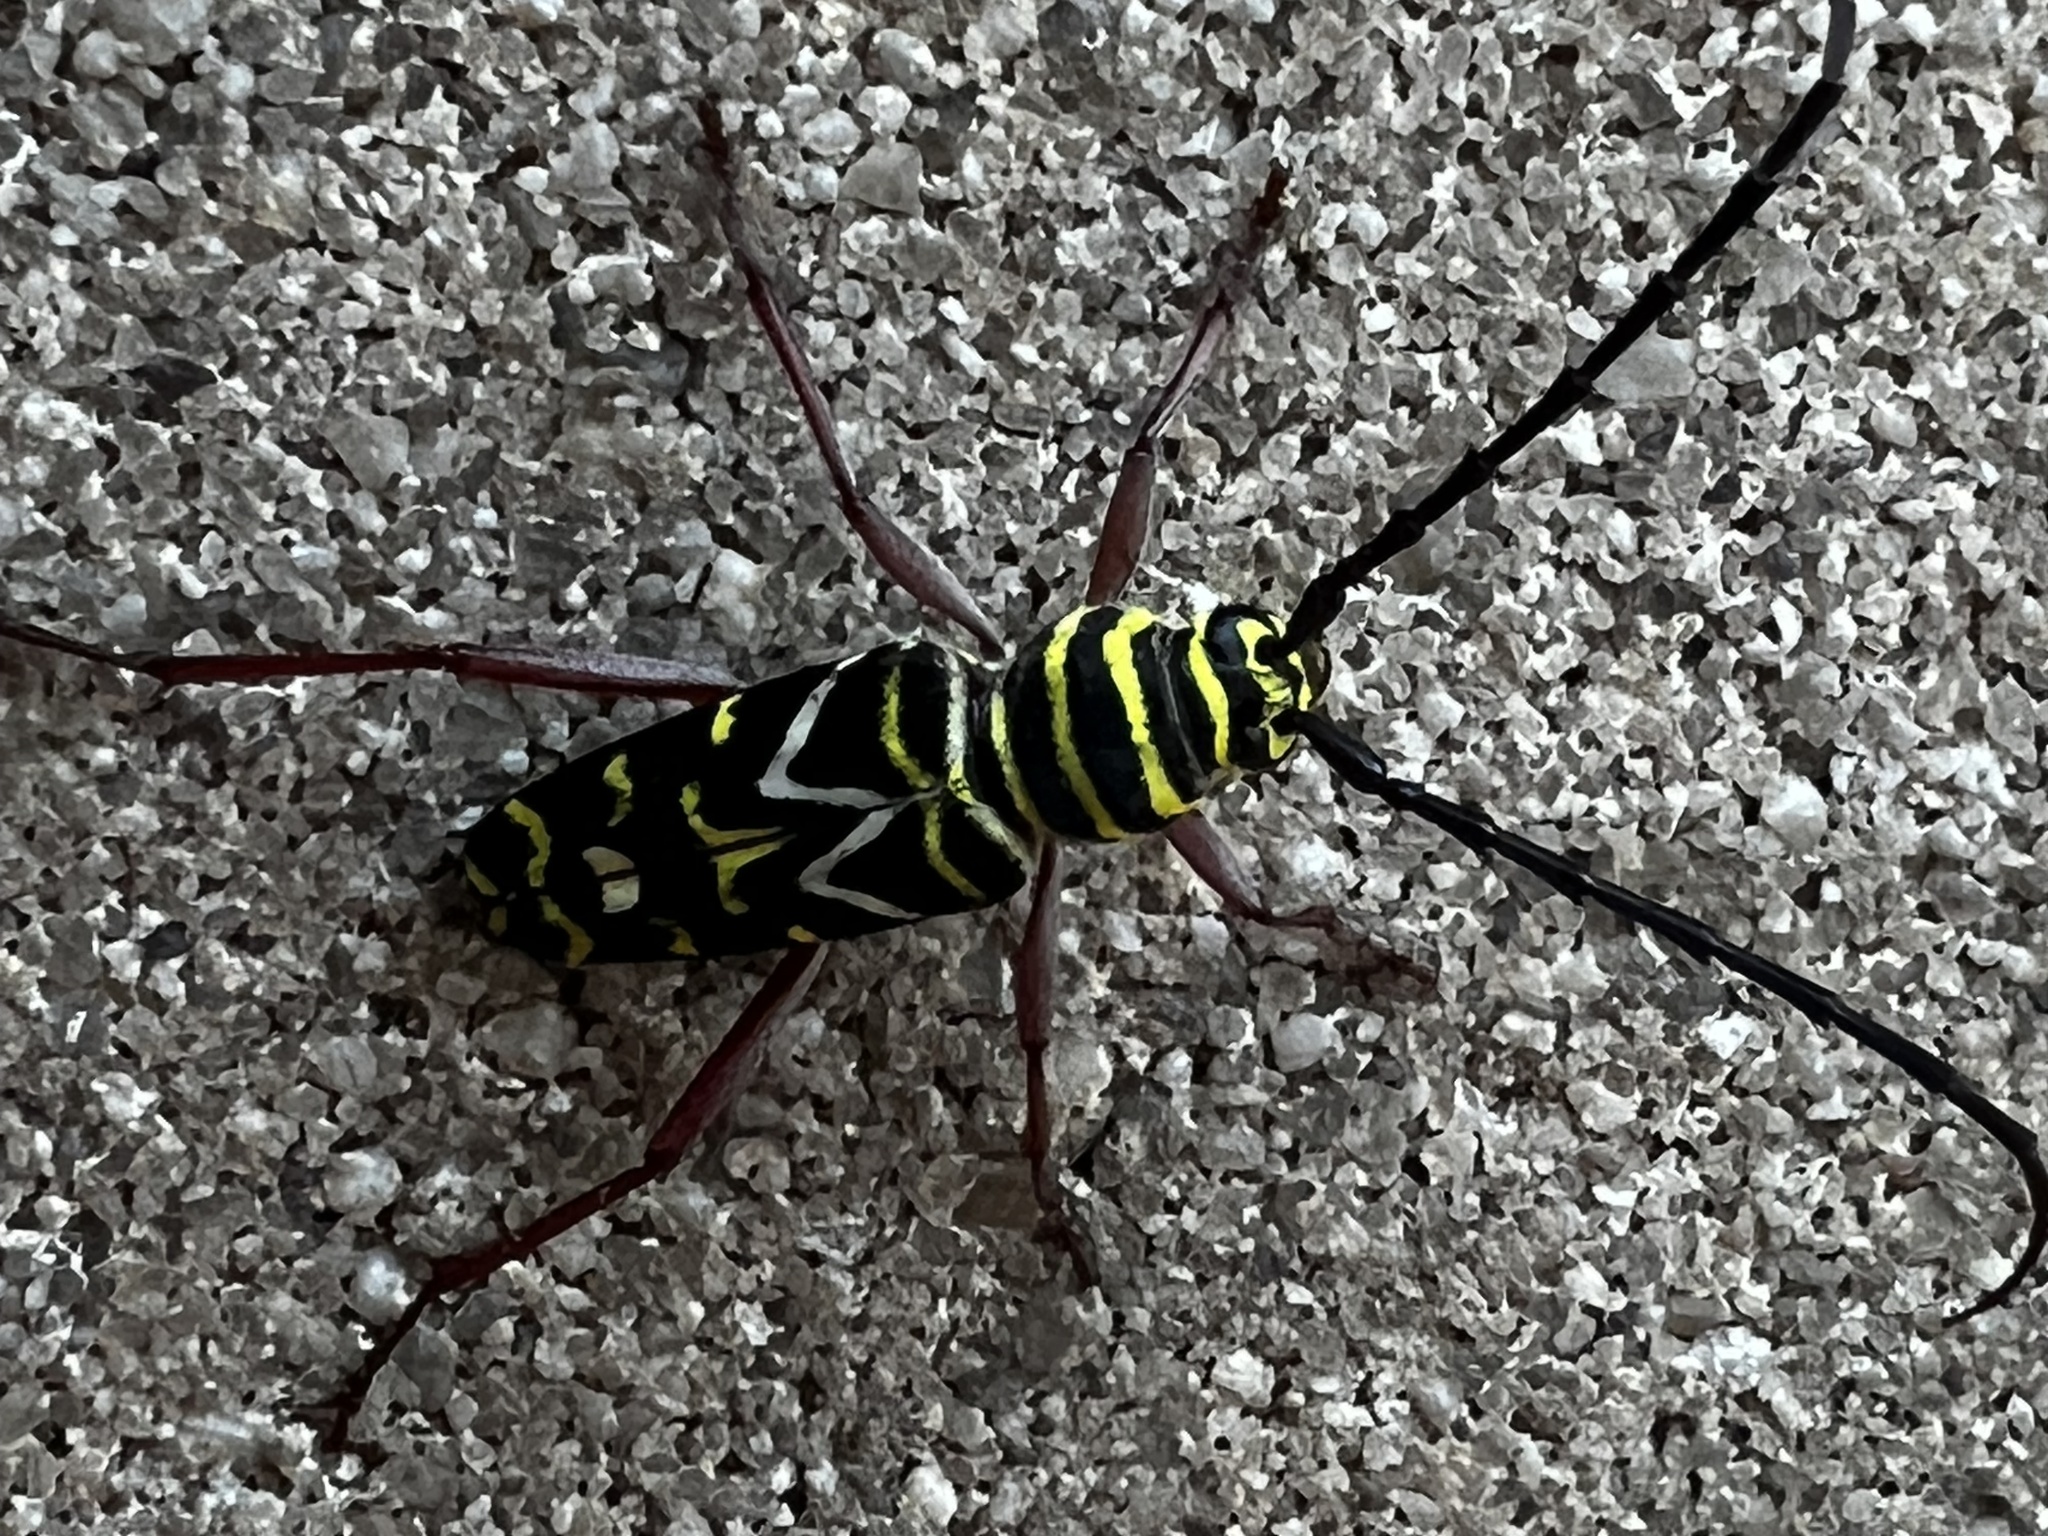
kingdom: Animalia
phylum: Arthropoda
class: Insecta
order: Coleoptera
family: Cerambycidae
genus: Megacyllene
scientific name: Megacyllene caryae
